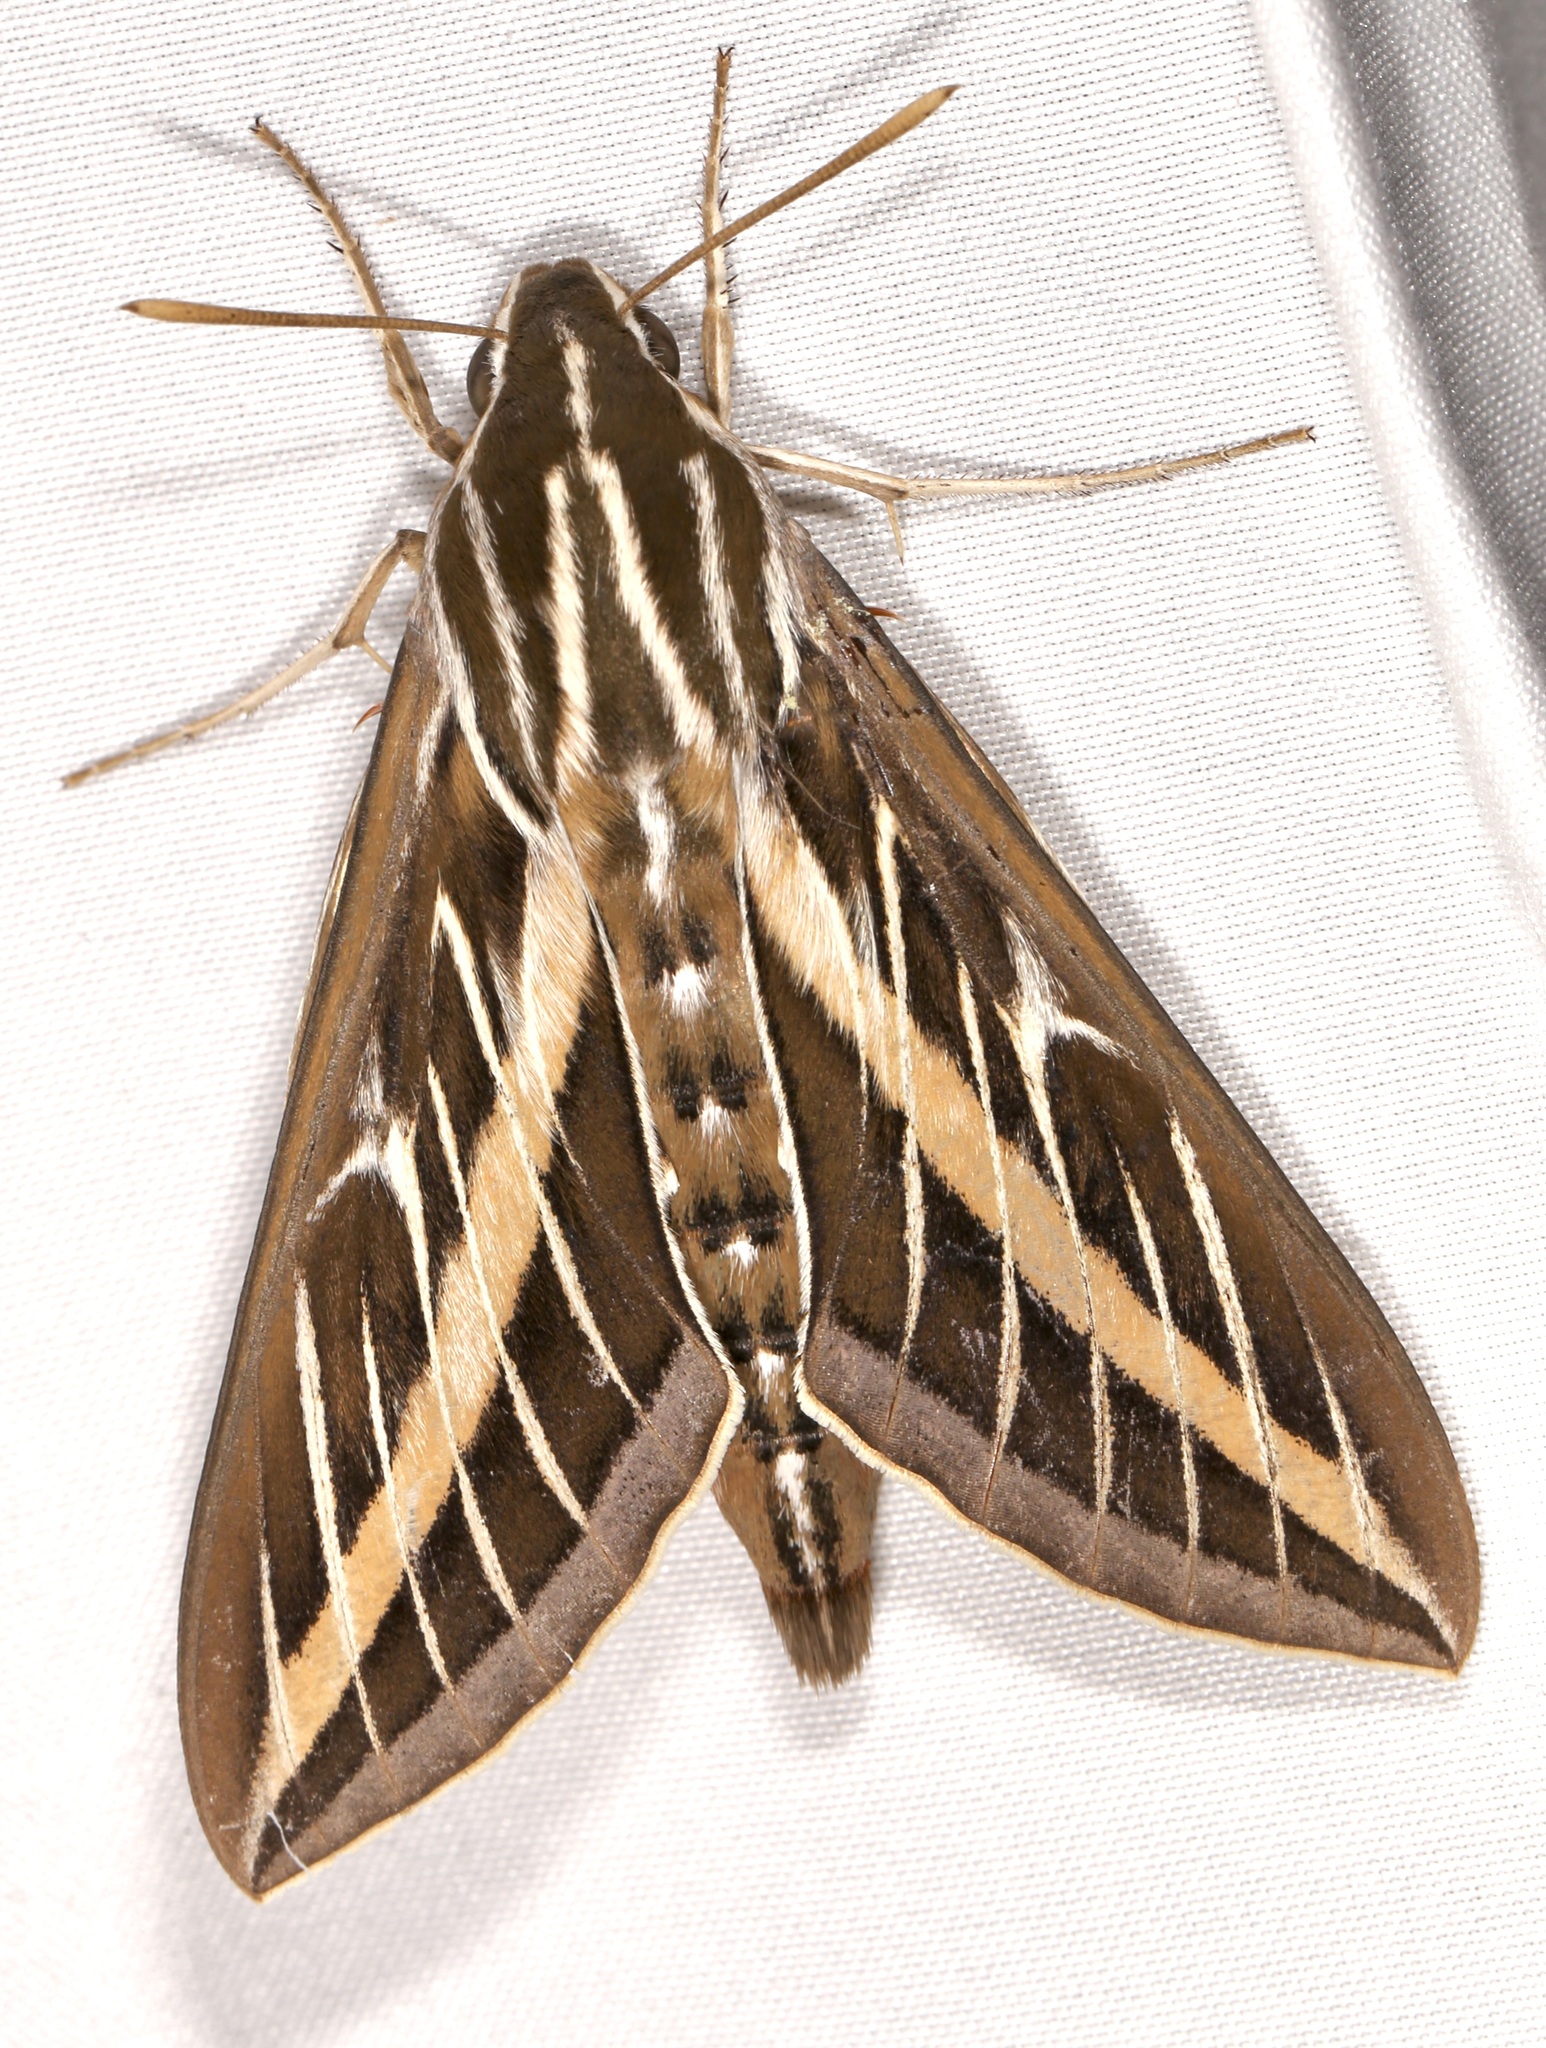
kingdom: Animalia
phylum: Arthropoda
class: Insecta
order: Lepidoptera
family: Sphingidae
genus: Hyles
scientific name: Hyles lineata
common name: White-lined sphinx
